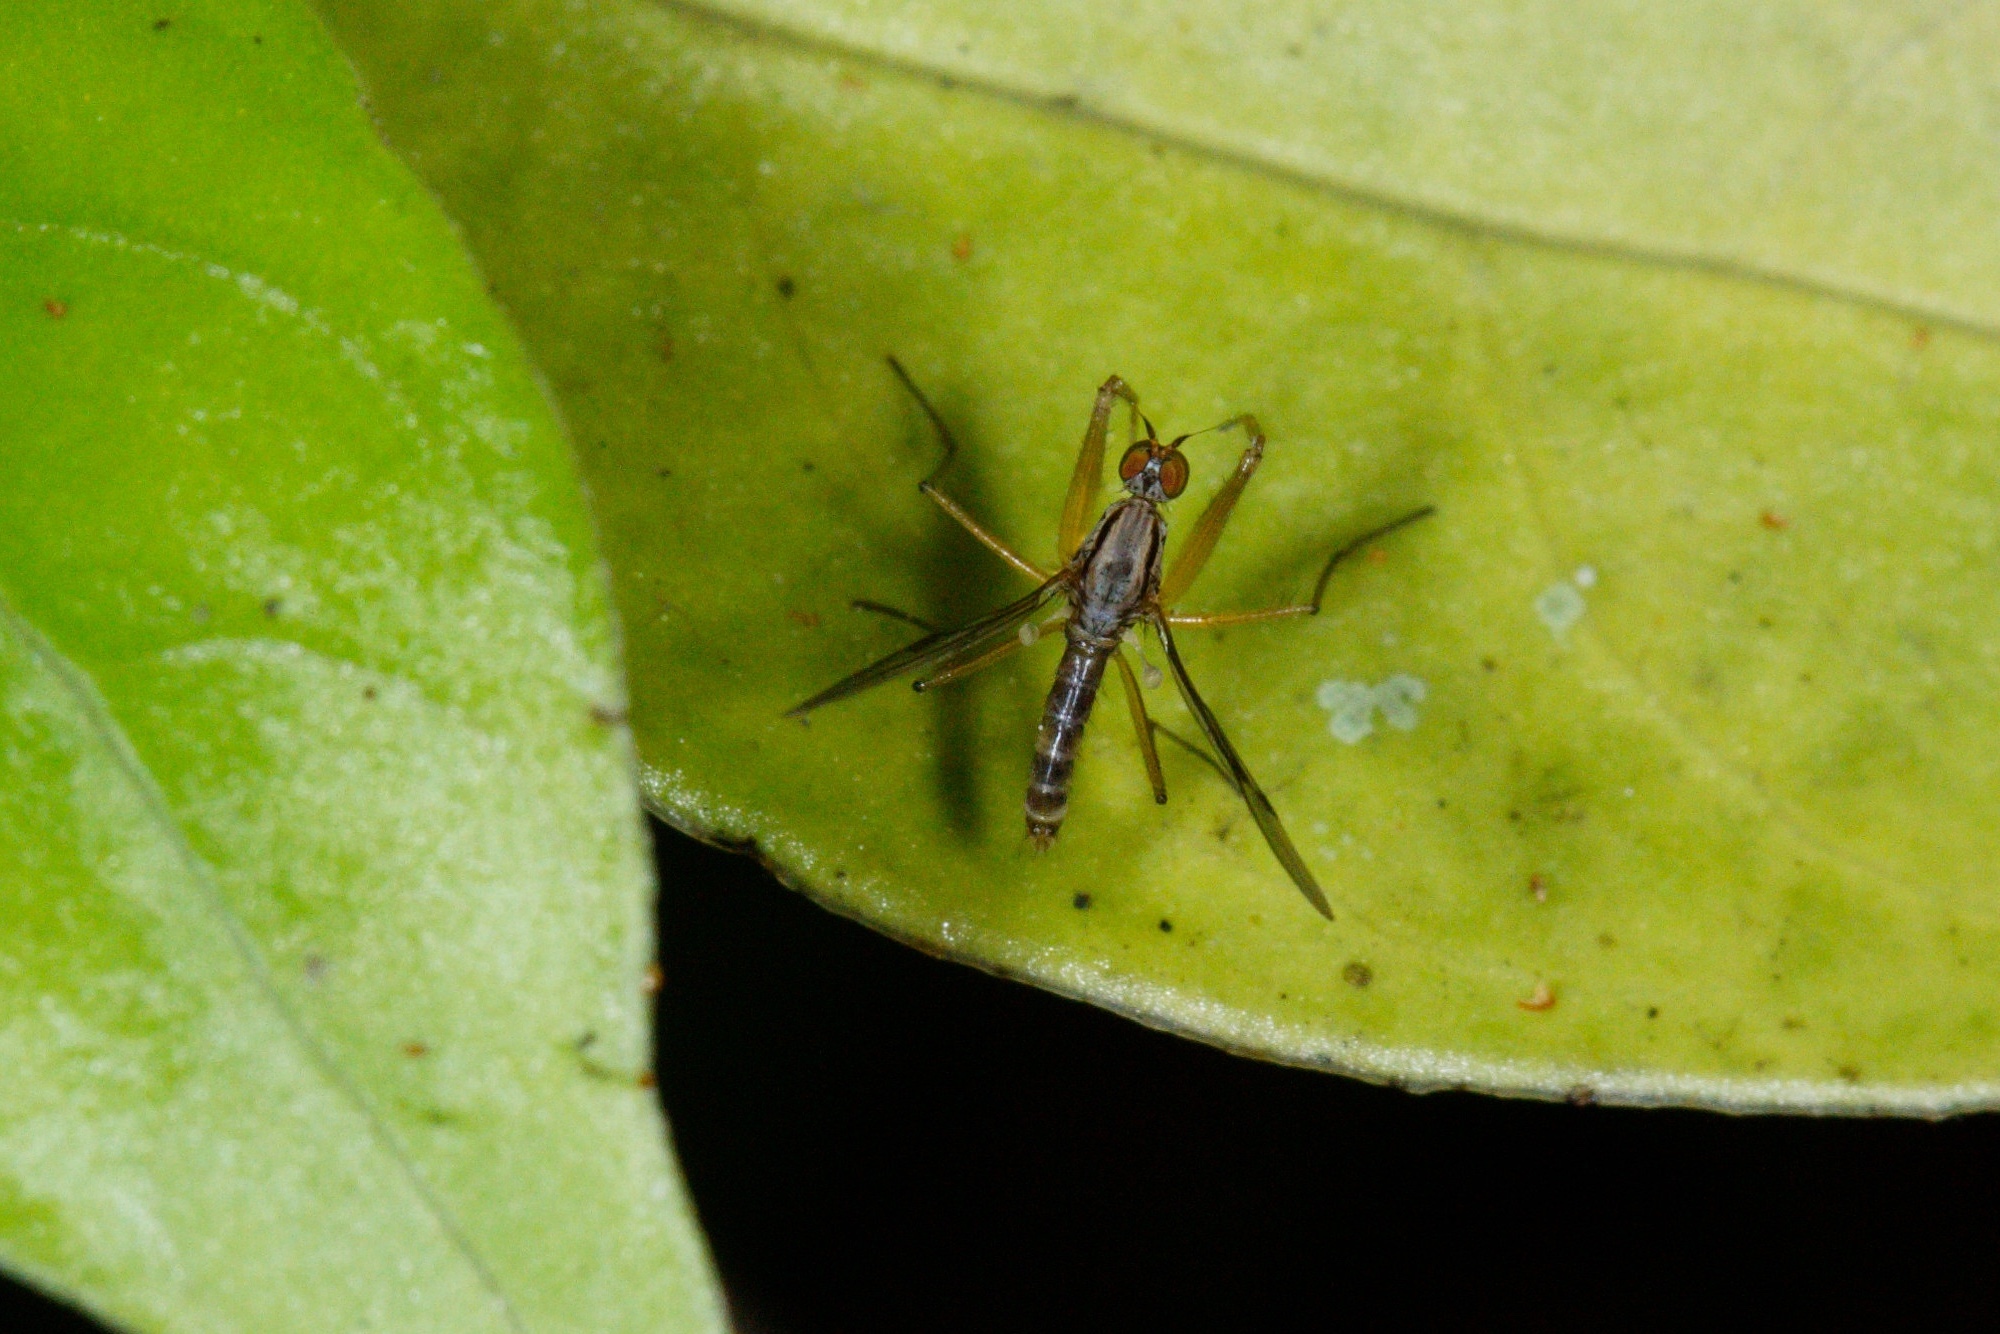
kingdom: Animalia
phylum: Arthropoda
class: Insecta
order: Diptera
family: Empididae
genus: Chelipoda
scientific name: Chelipoda mirabilis
